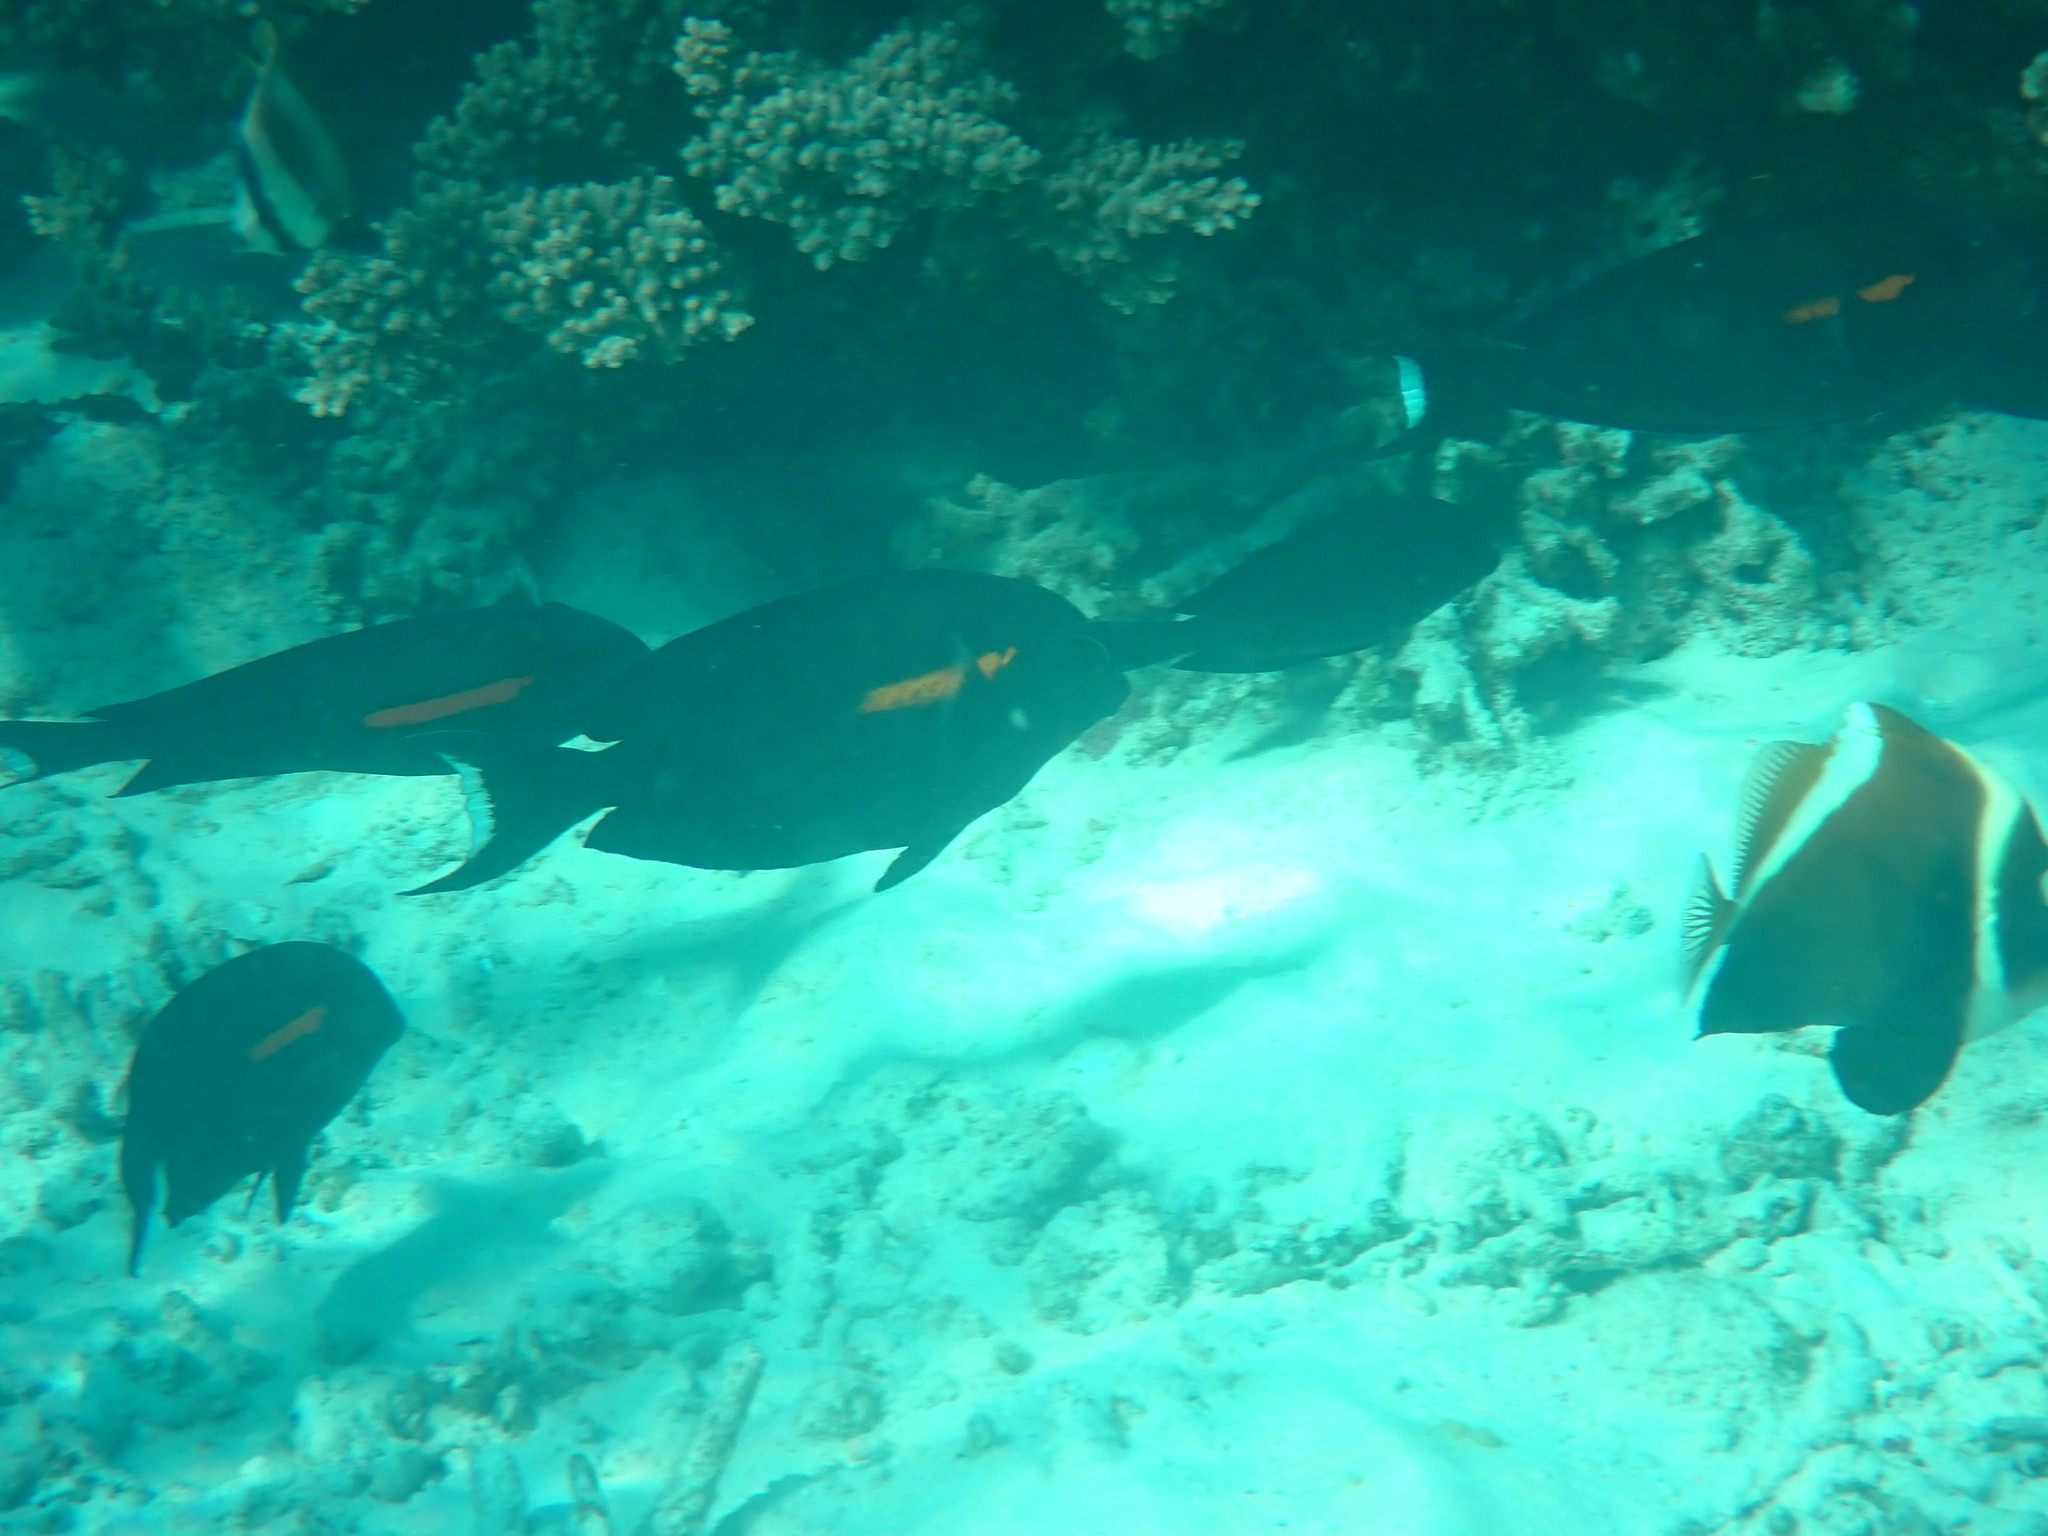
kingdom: Animalia
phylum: Chordata
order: Perciformes
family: Acanthuridae
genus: Acanthurus
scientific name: Acanthurus olivaceus
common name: Gendarme fish
